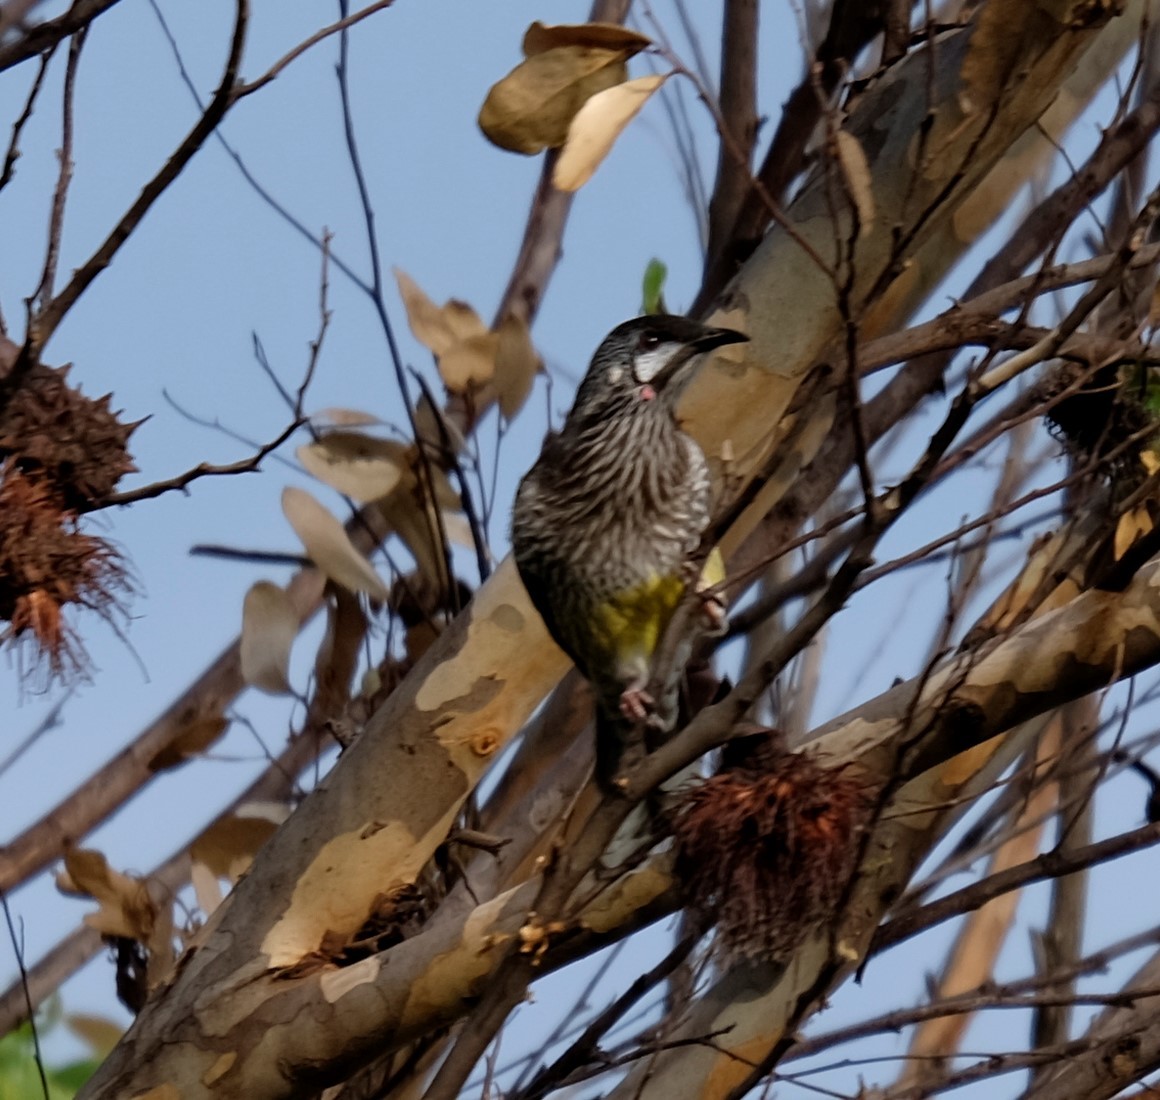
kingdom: Animalia
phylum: Chordata
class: Aves
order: Passeriformes
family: Meliphagidae
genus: Anthochaera
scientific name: Anthochaera carunculata
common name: Red wattlebird
